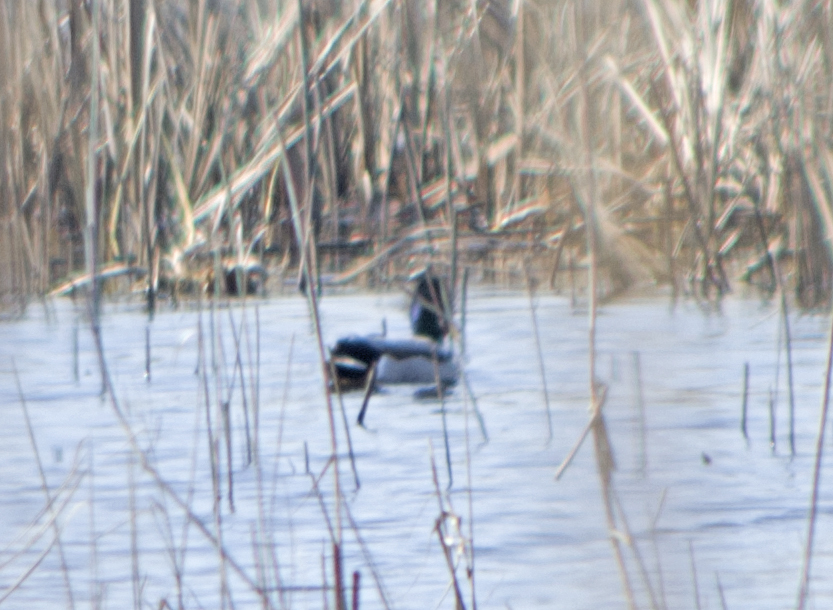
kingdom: Animalia
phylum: Chordata
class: Aves
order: Anseriformes
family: Anatidae
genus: Anas
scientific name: Anas platyrhynchos
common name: Mallard
